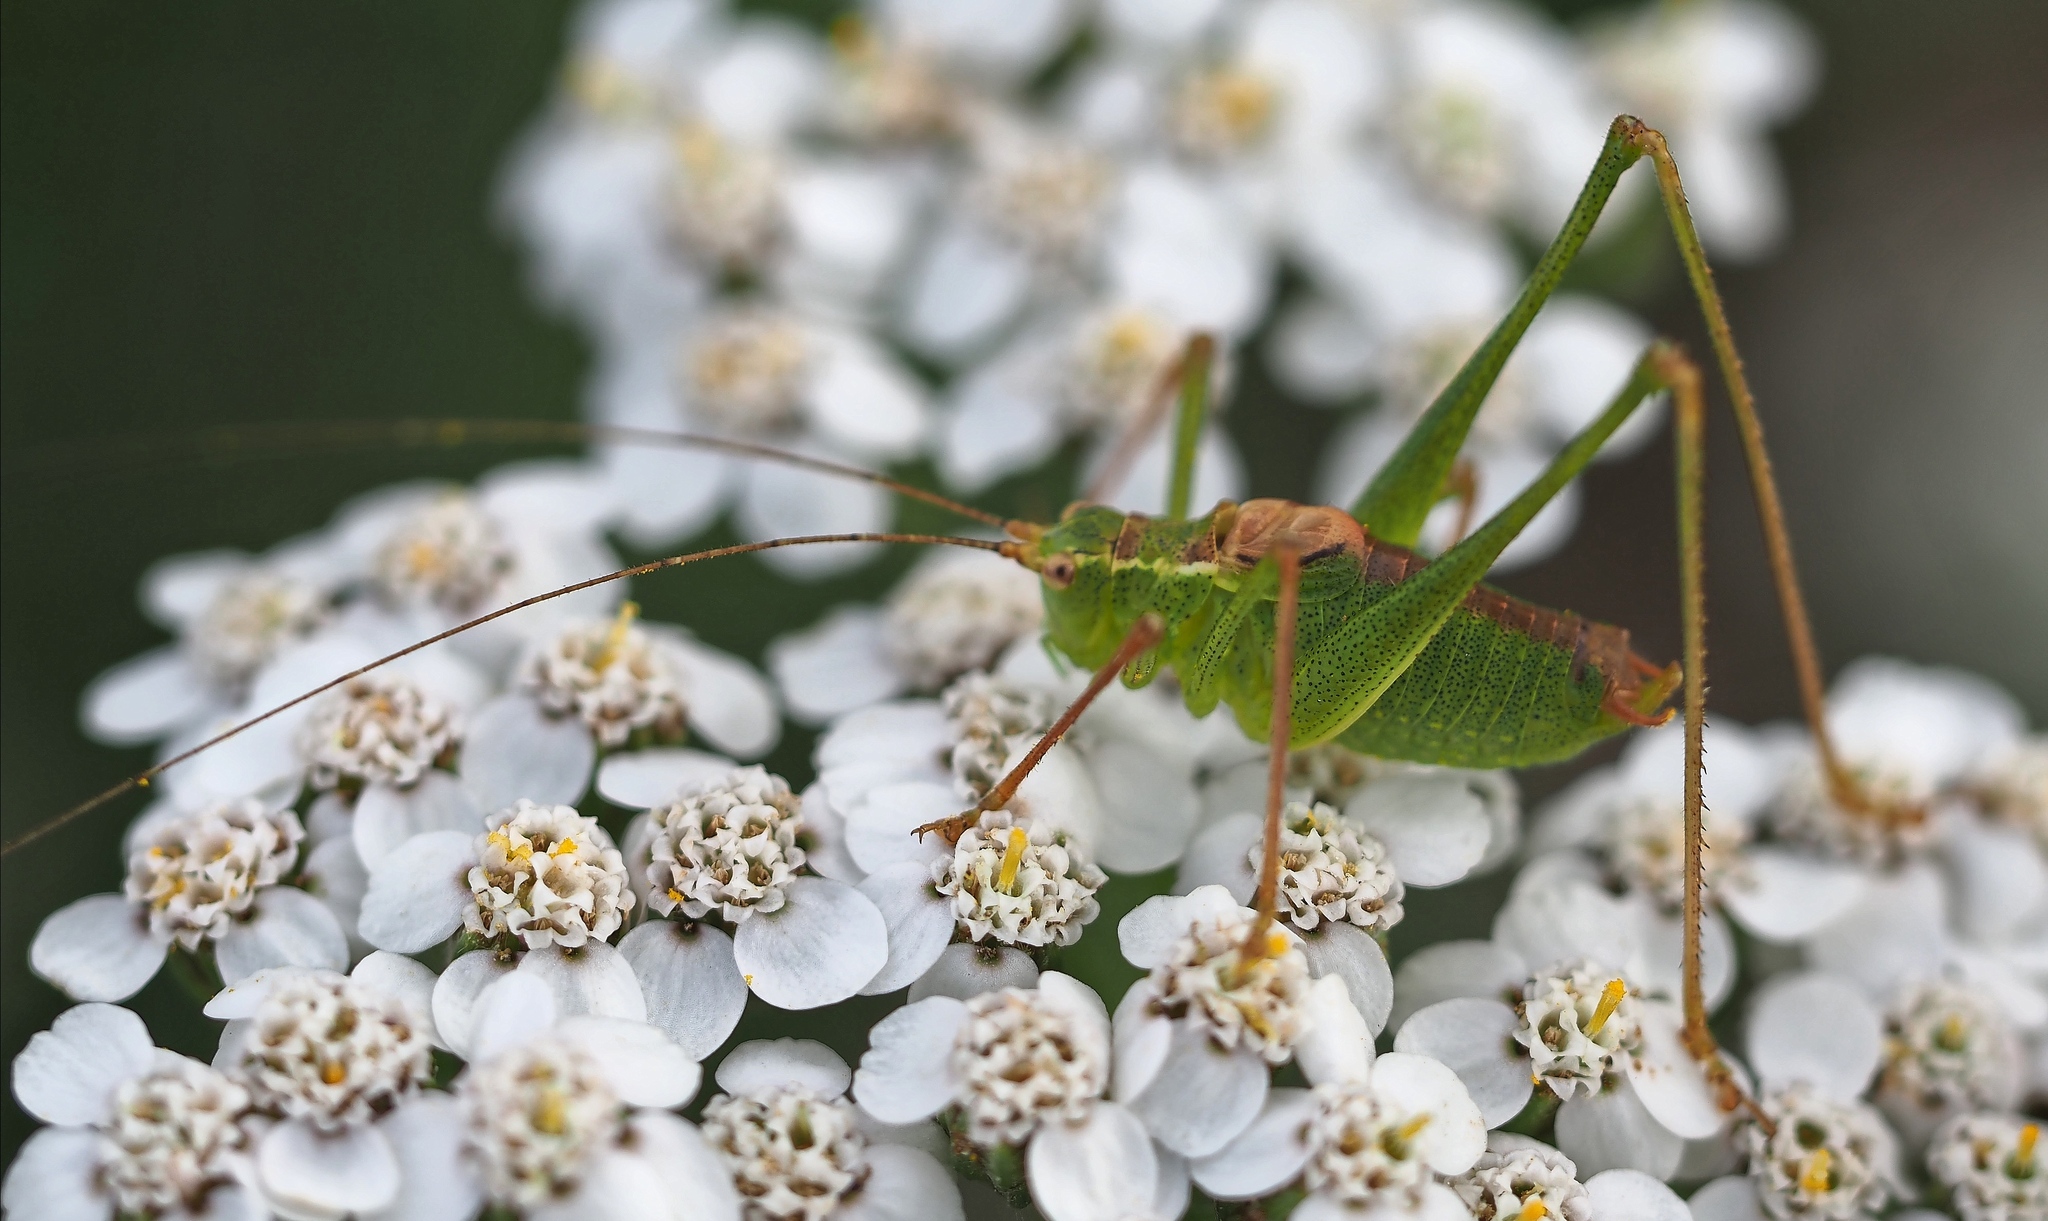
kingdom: Animalia
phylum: Arthropoda
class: Insecta
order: Orthoptera
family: Tettigoniidae
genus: Leptophyes
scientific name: Leptophyes punctatissima
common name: Speckled bush-cricket
